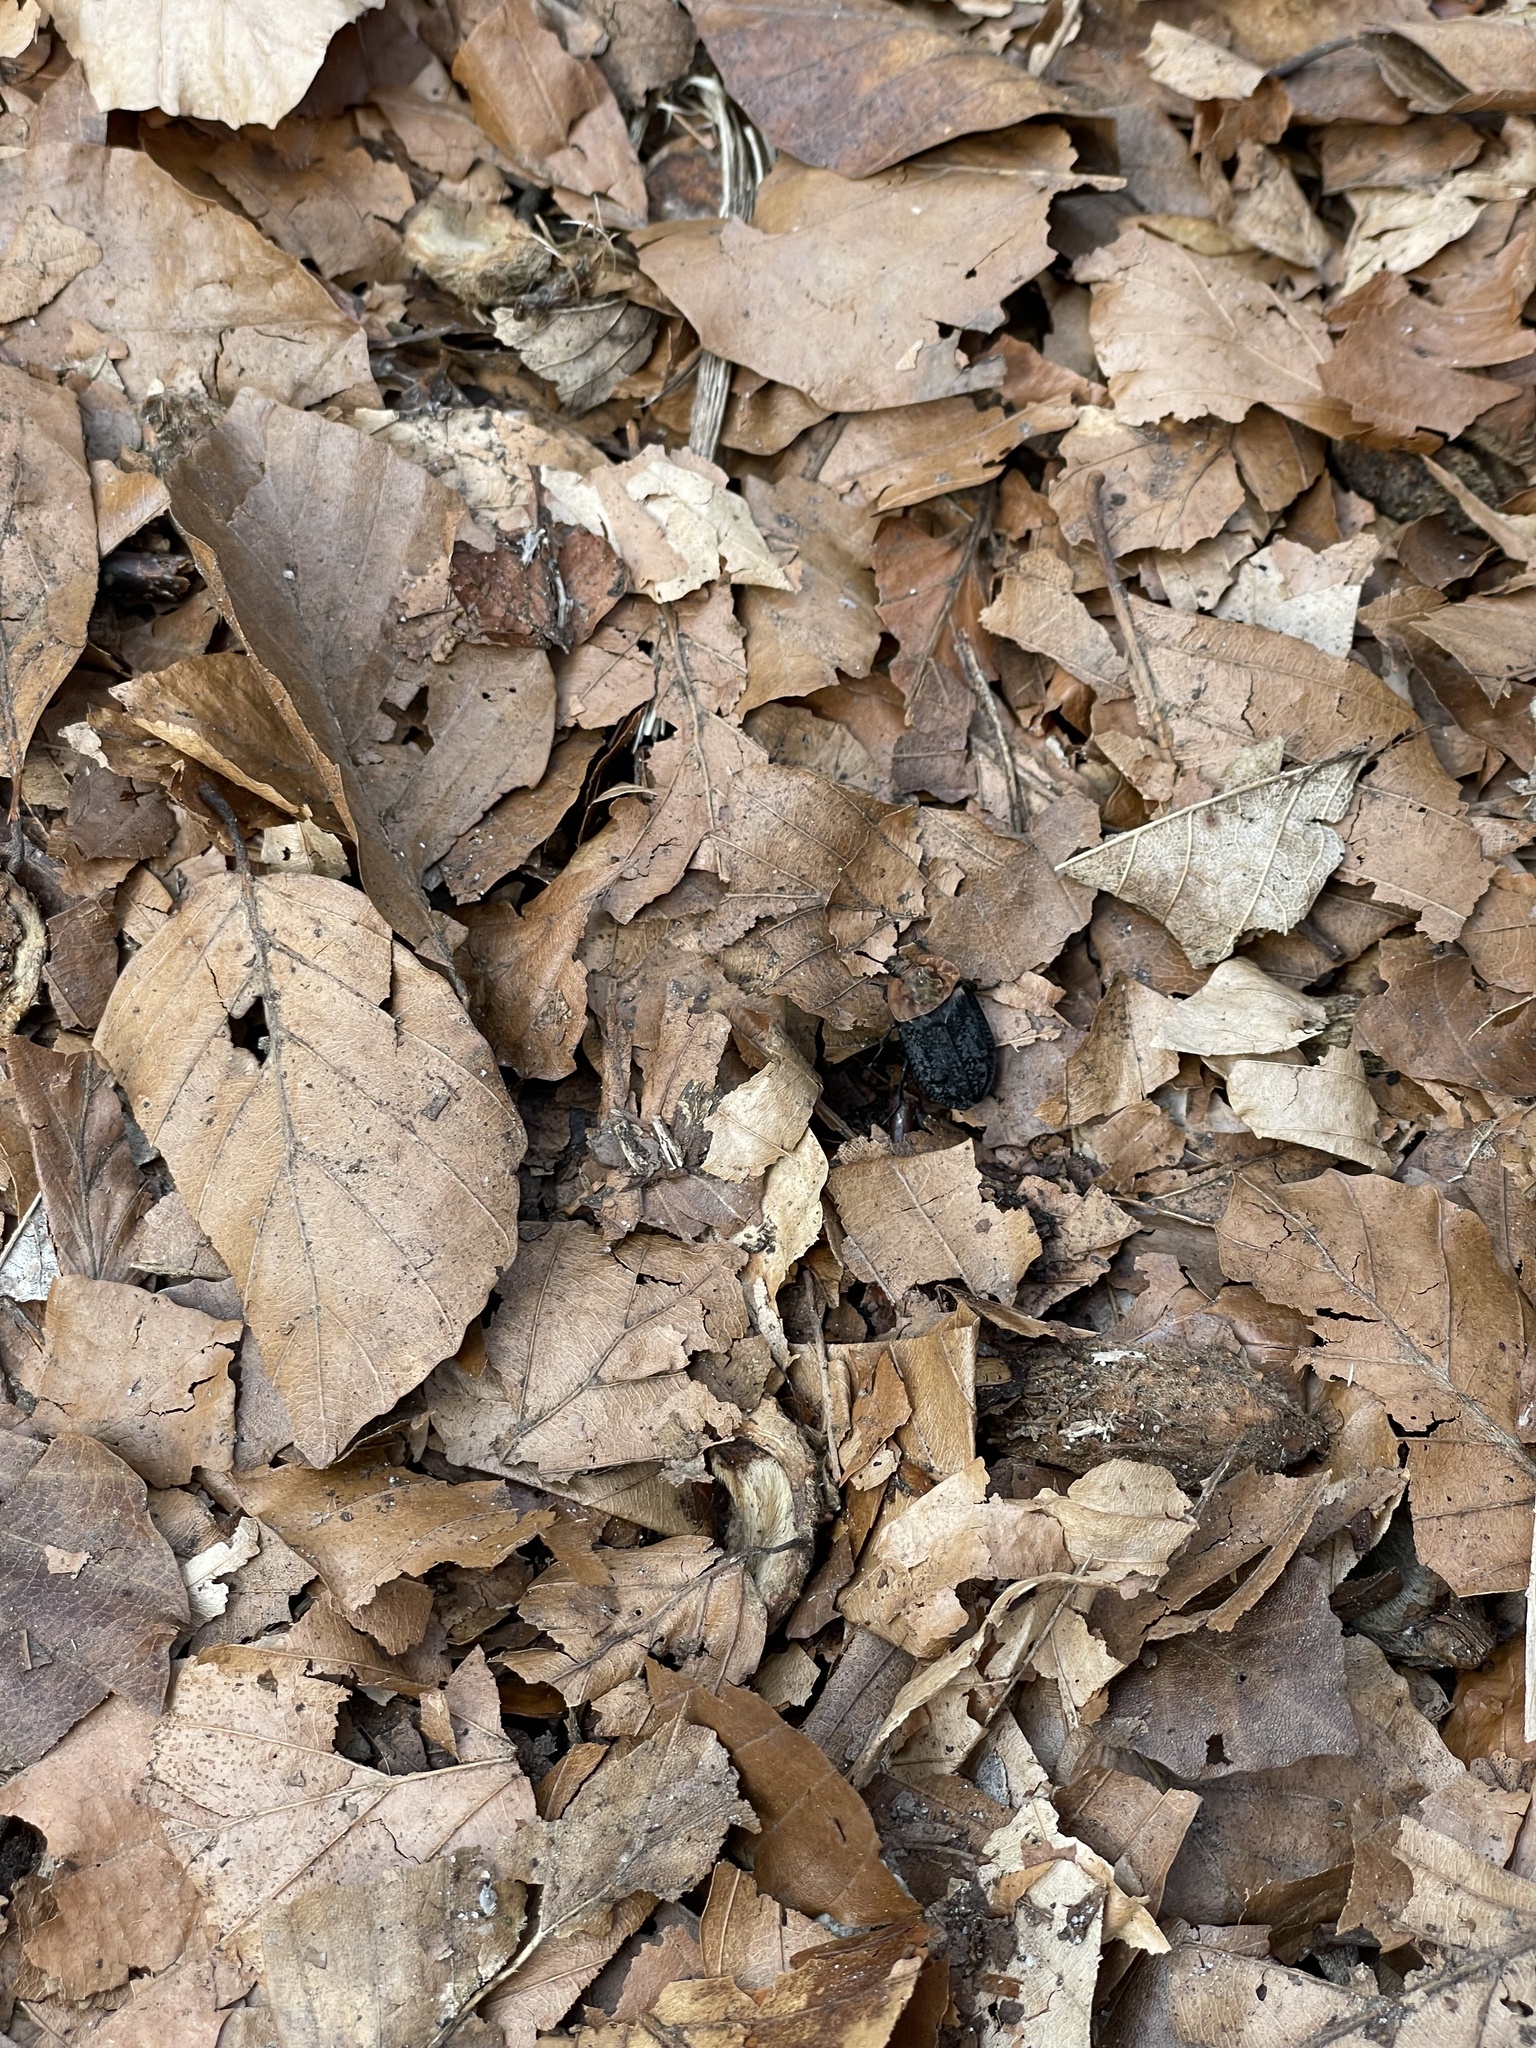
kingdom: Animalia
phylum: Arthropoda
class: Insecta
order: Coleoptera
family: Staphylinidae
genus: Oiceoptoma
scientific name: Oiceoptoma thoracicum
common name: Red-breasted carrion beetle
